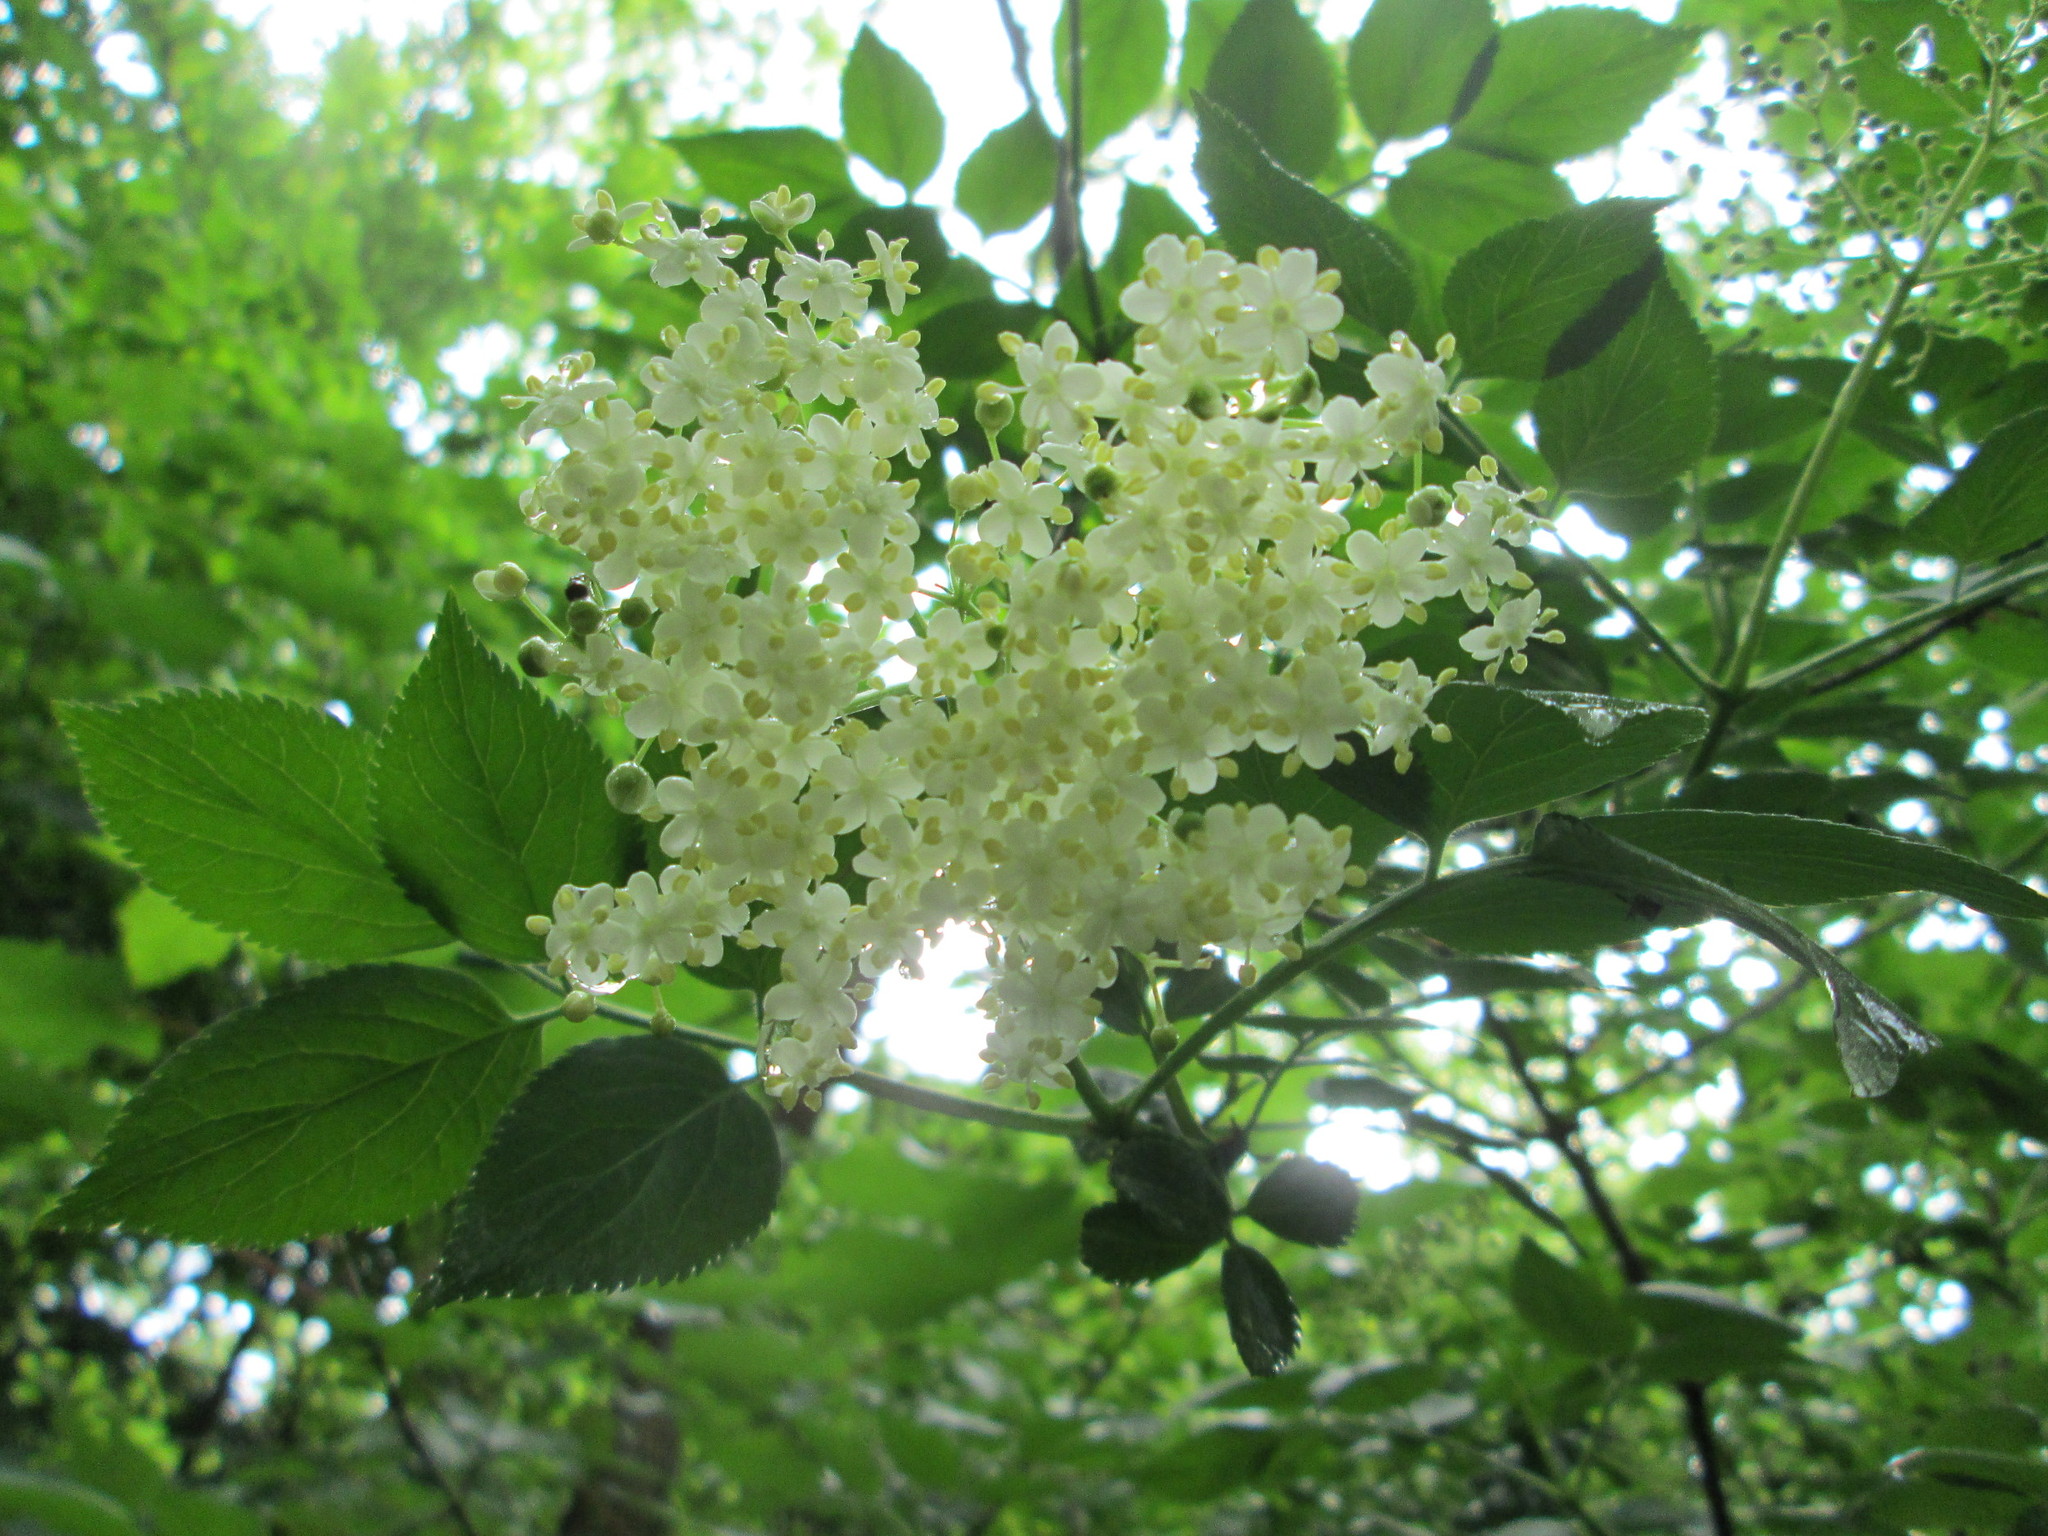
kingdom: Plantae
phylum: Tracheophyta
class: Magnoliopsida
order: Dipsacales
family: Viburnaceae
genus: Sambucus
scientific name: Sambucus nigra
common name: Elder
